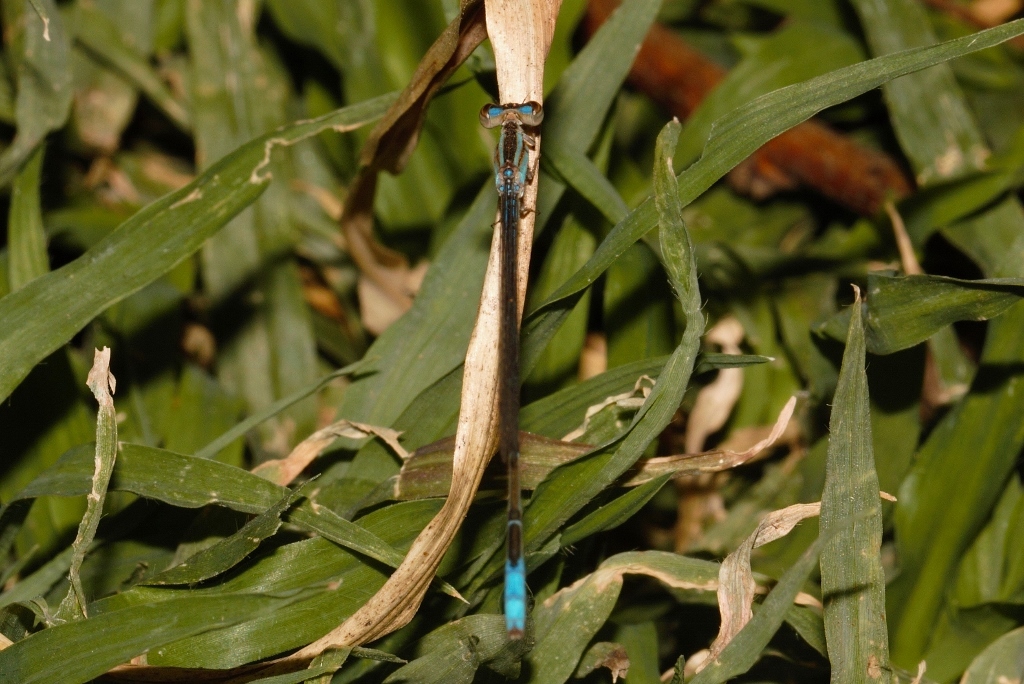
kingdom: Animalia
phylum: Arthropoda
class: Insecta
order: Odonata
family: Coenagrionidae
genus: Africallagma
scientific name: Africallagma fractum
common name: Slender bluet
